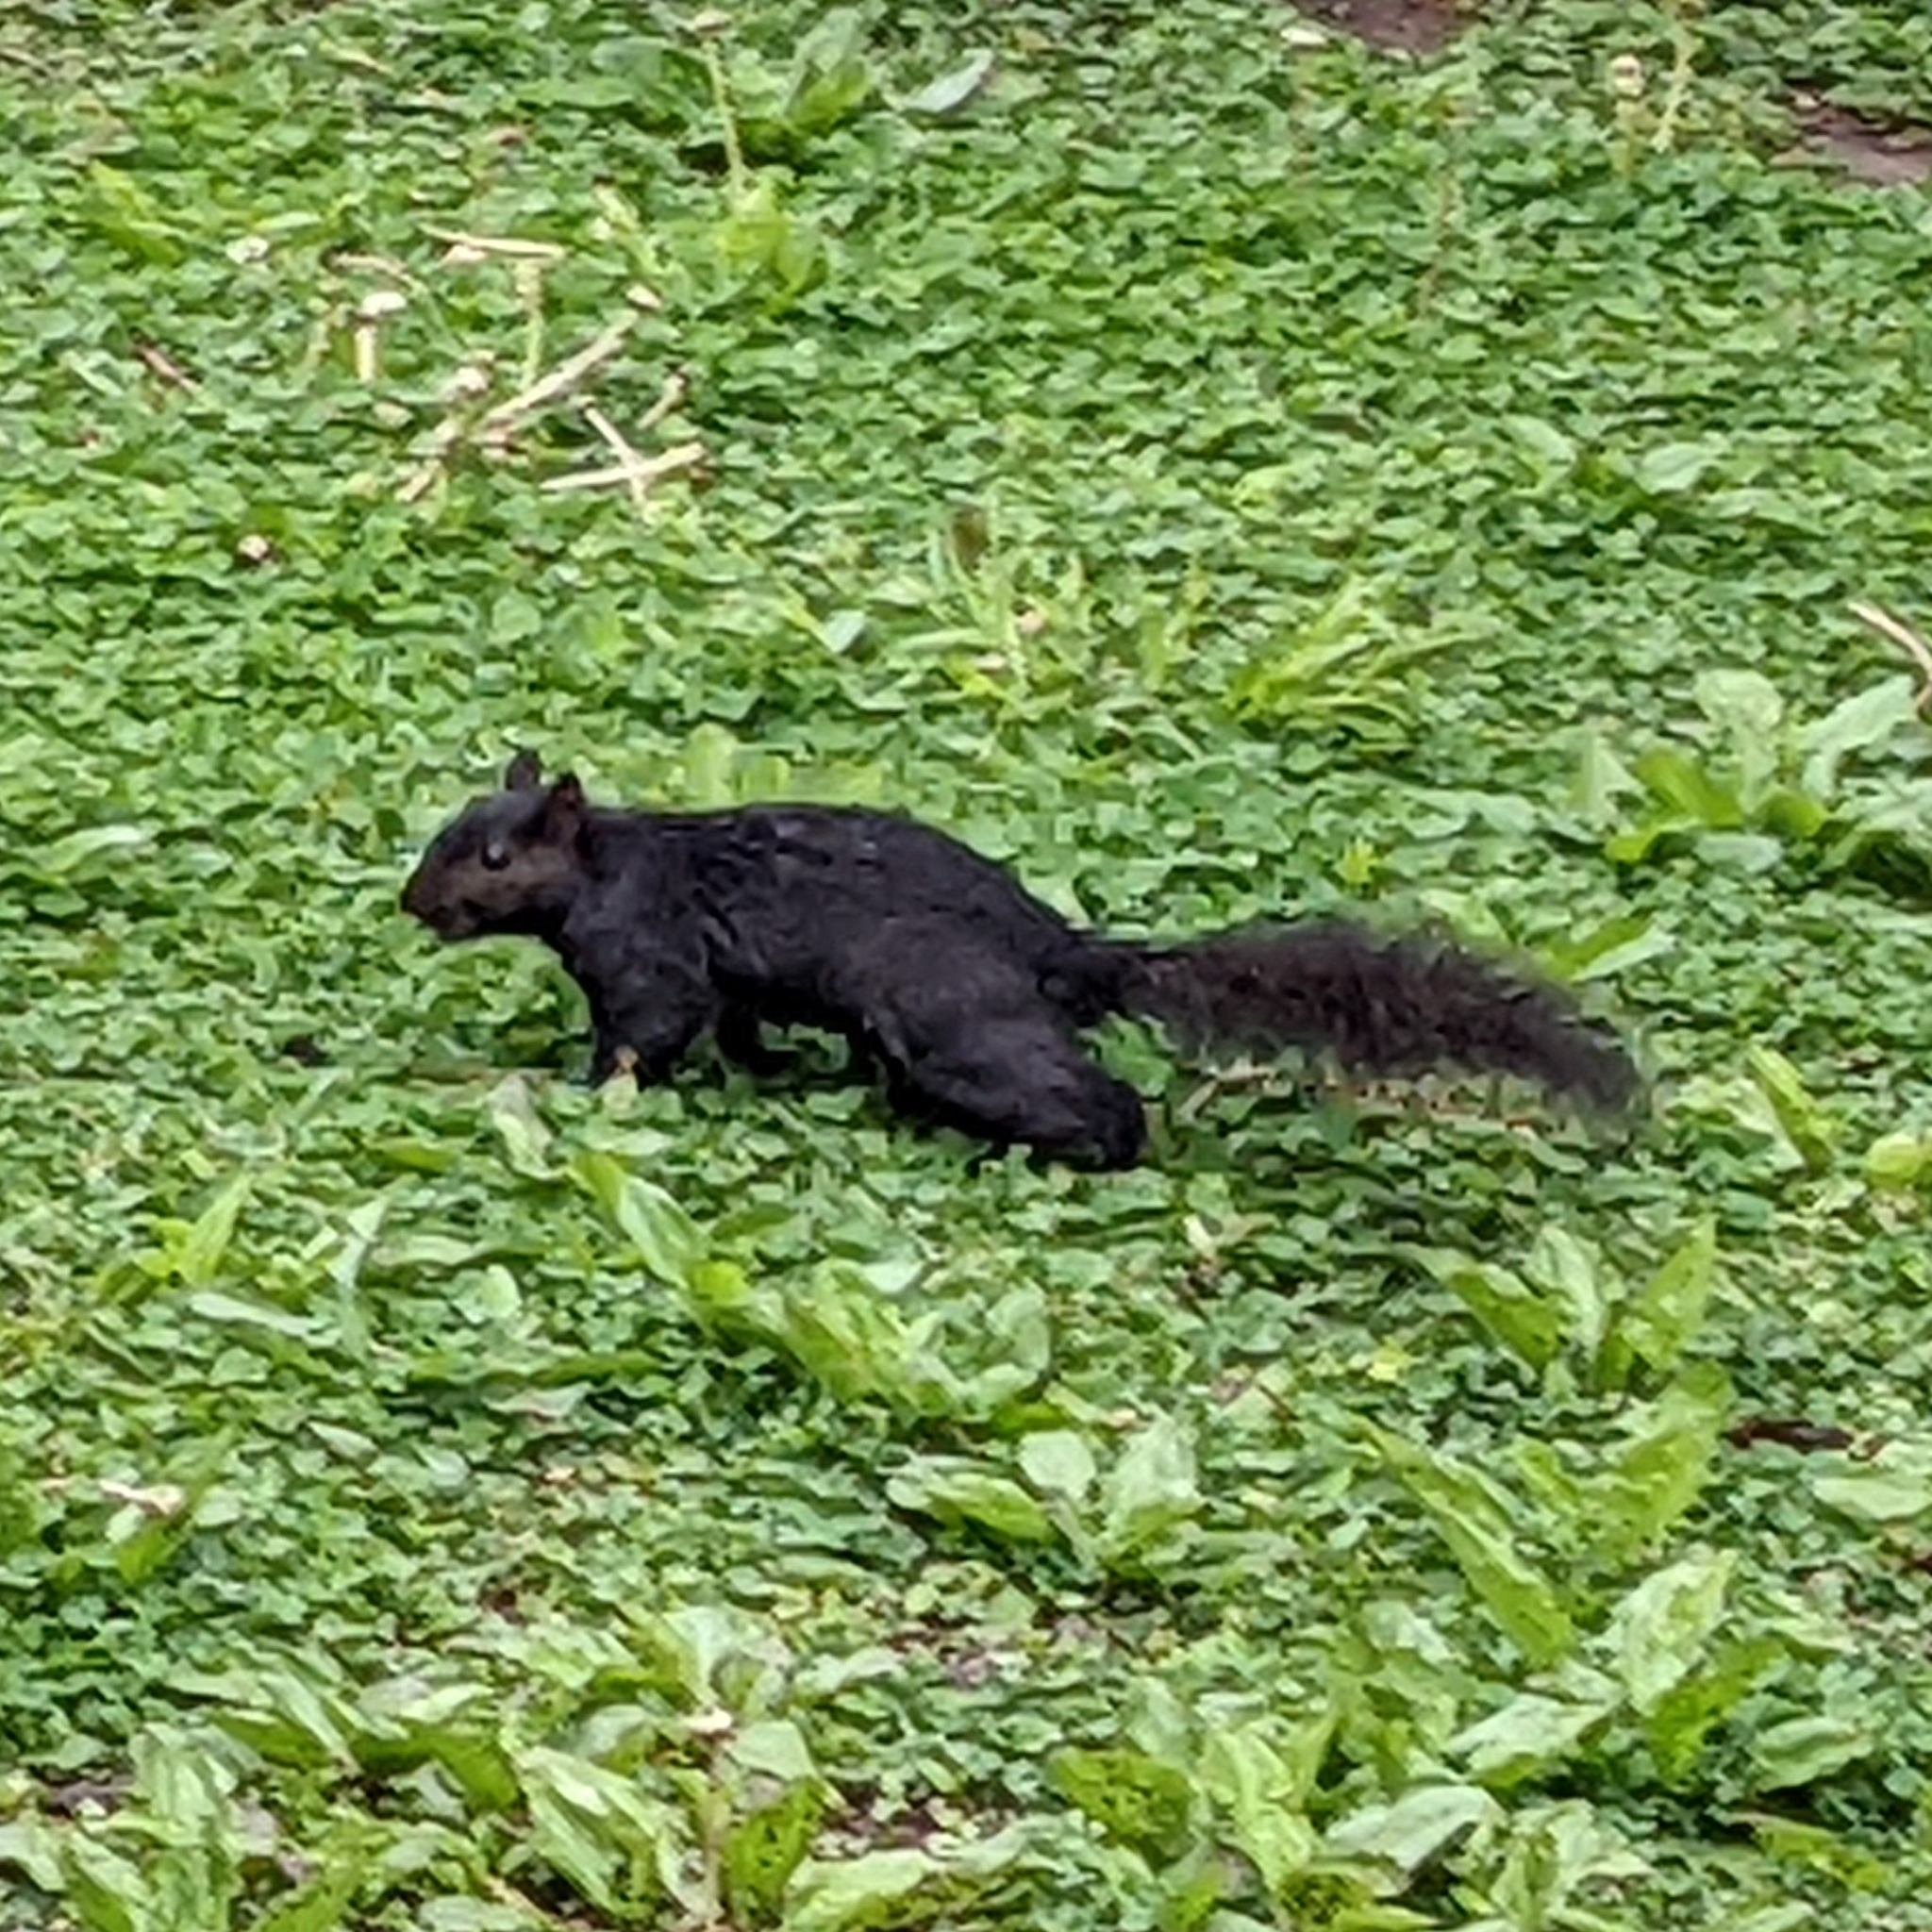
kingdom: Animalia
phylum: Chordata
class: Mammalia
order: Rodentia
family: Sciuridae
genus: Sciurus
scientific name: Sciurus carolinensis
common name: Eastern gray squirrel
